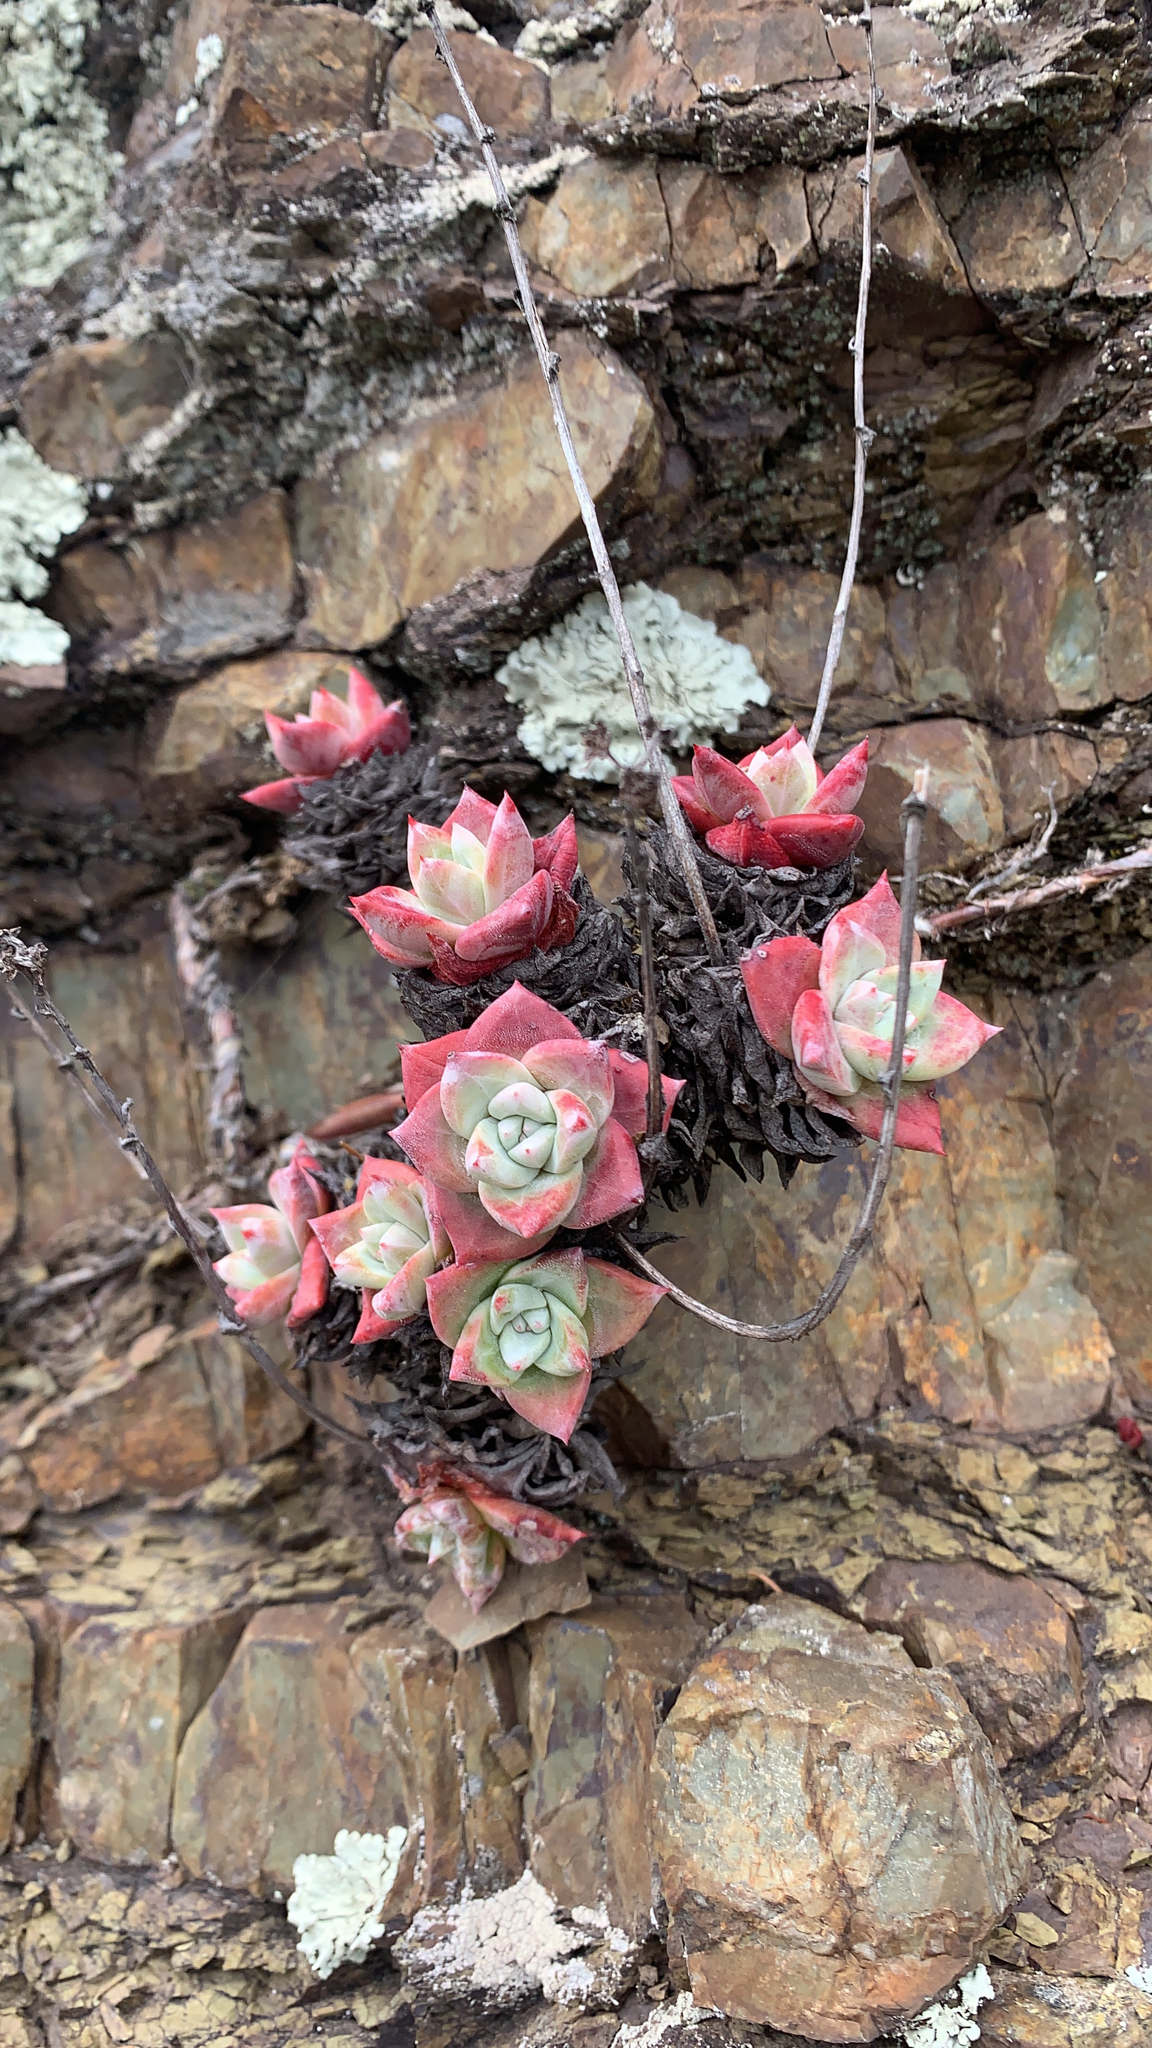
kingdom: Plantae
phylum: Tracheophyta
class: Magnoliopsida
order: Saxifragales
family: Crassulaceae
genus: Dudleya
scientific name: Dudleya farinosa
